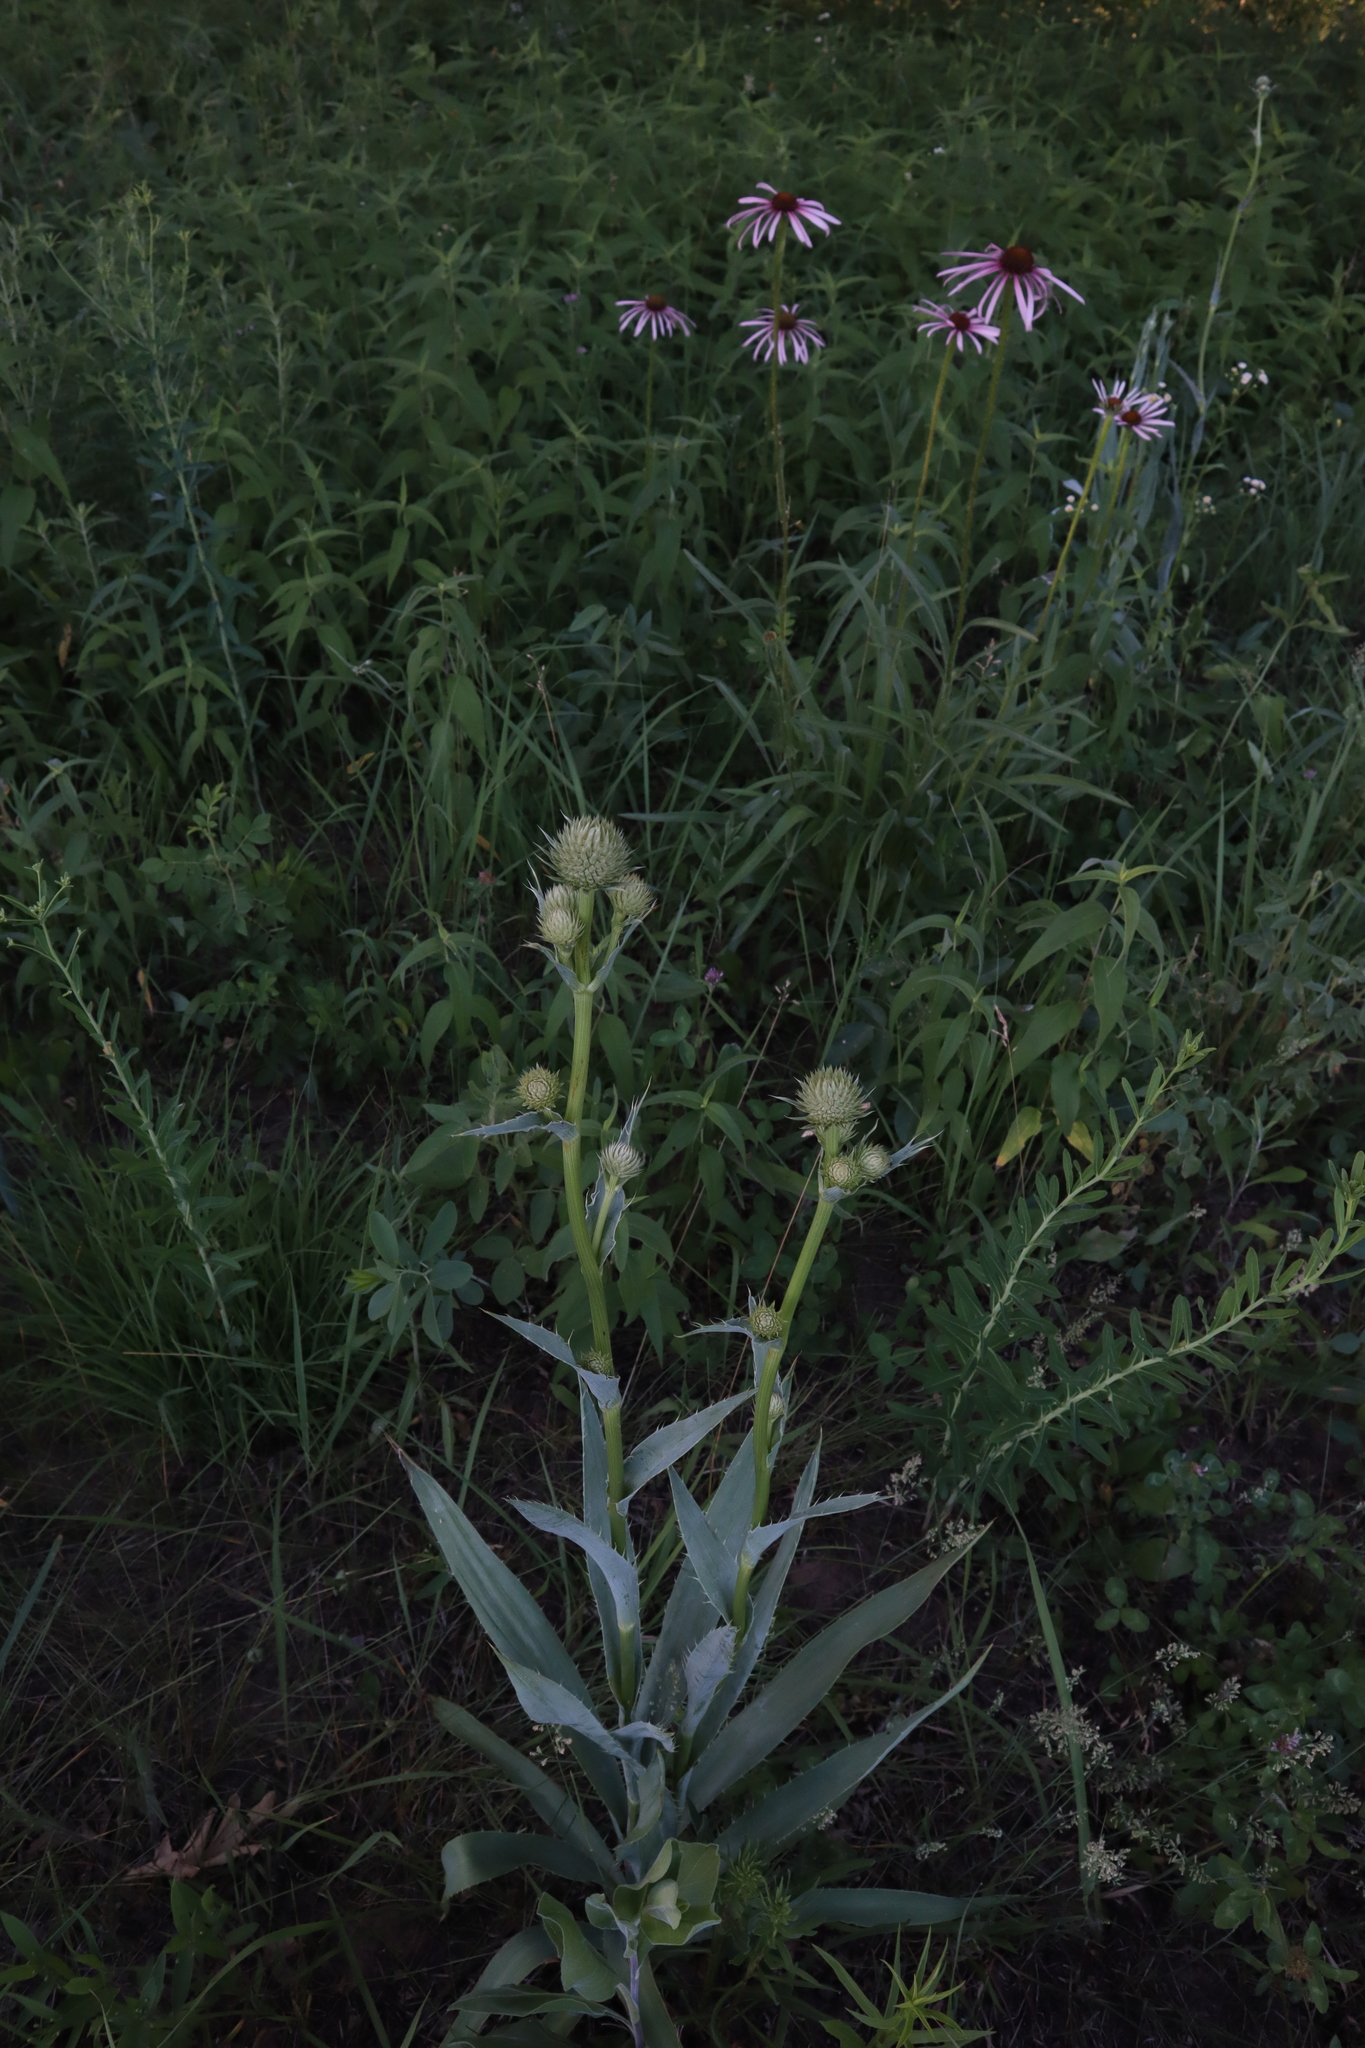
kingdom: Plantae
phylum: Tracheophyta
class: Magnoliopsida
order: Apiales
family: Apiaceae
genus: Eryngium
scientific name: Eryngium yuccifolium
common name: Button eryngo
